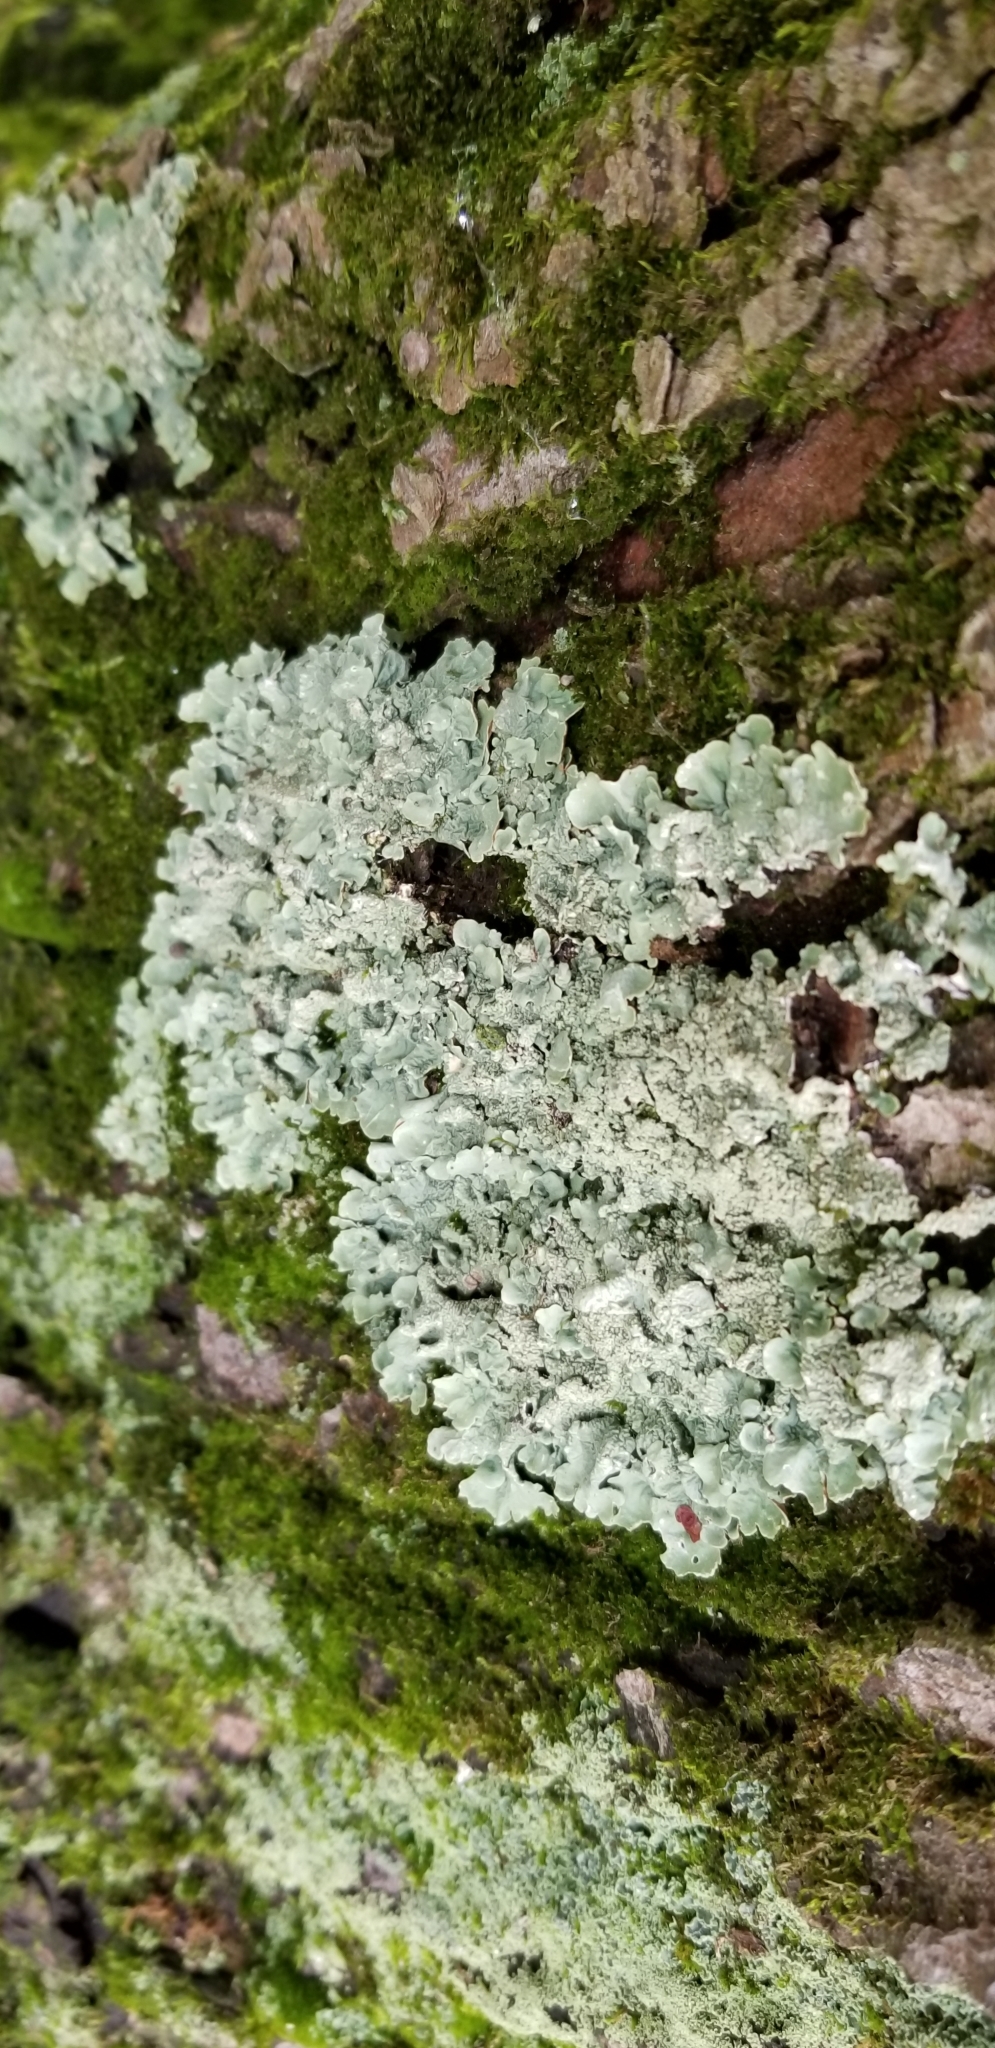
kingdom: Fungi
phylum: Ascomycota
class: Lecanoromycetes
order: Lecanorales
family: Parmeliaceae
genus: Flavoparmelia
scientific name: Flavoparmelia caperata
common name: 40-mile per hour lichen
